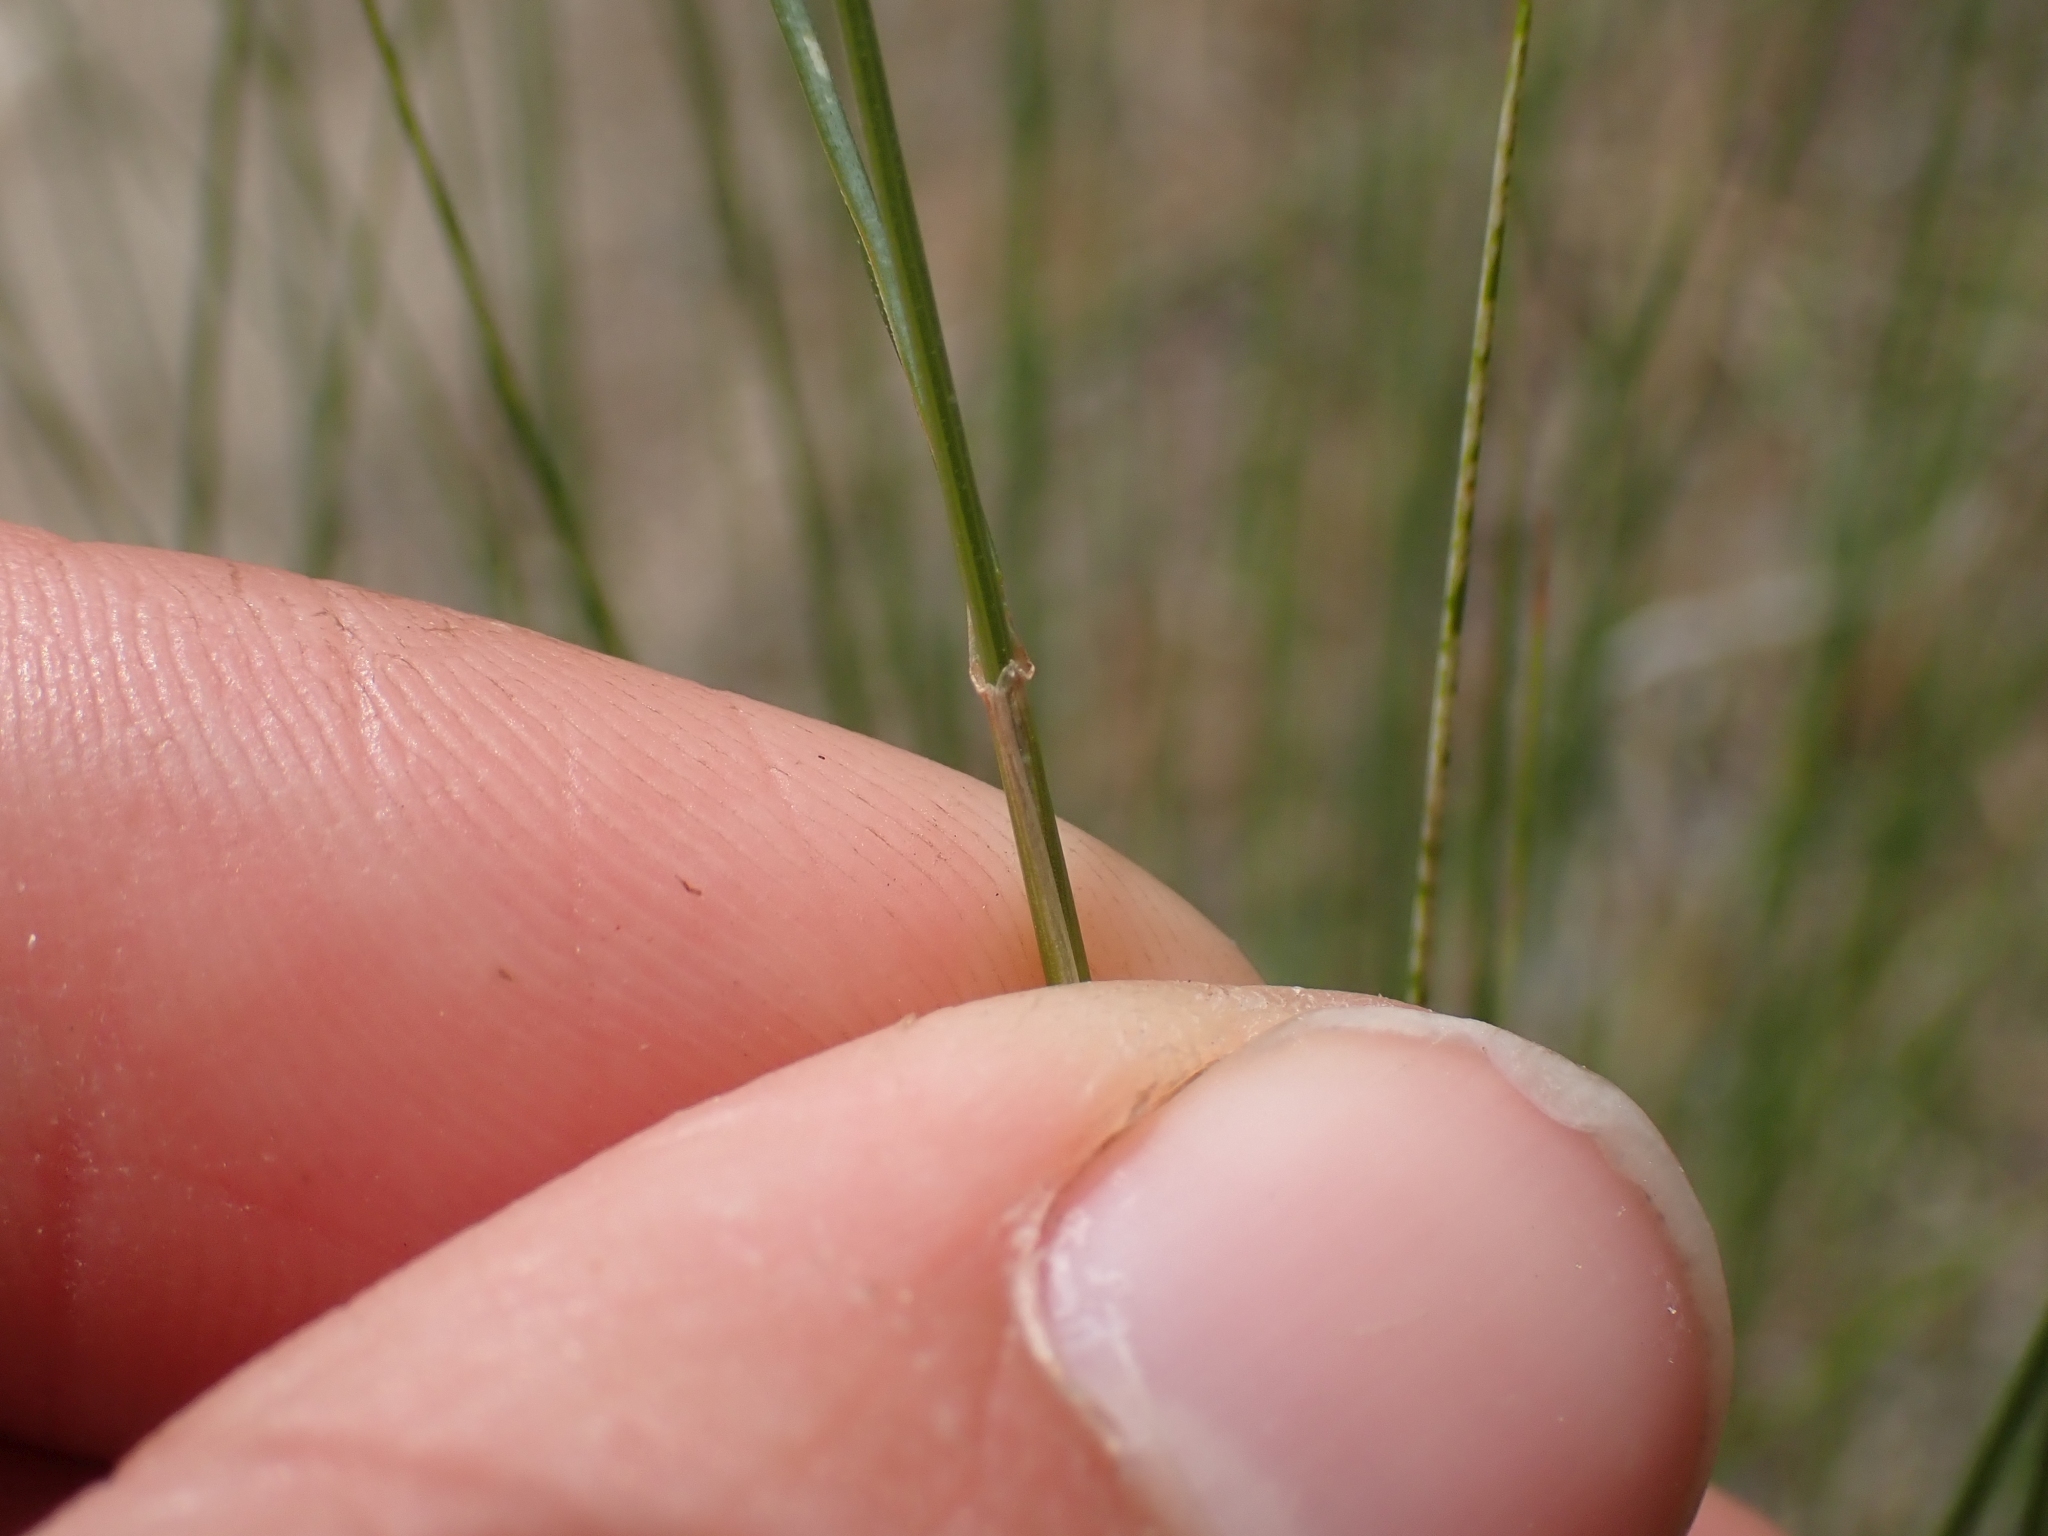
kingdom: Plantae
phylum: Tracheophyta
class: Liliopsida
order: Poales
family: Poaceae
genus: Pseudoroegneria
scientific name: Pseudoroegneria spicata
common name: Bluebunch wheatgrass
